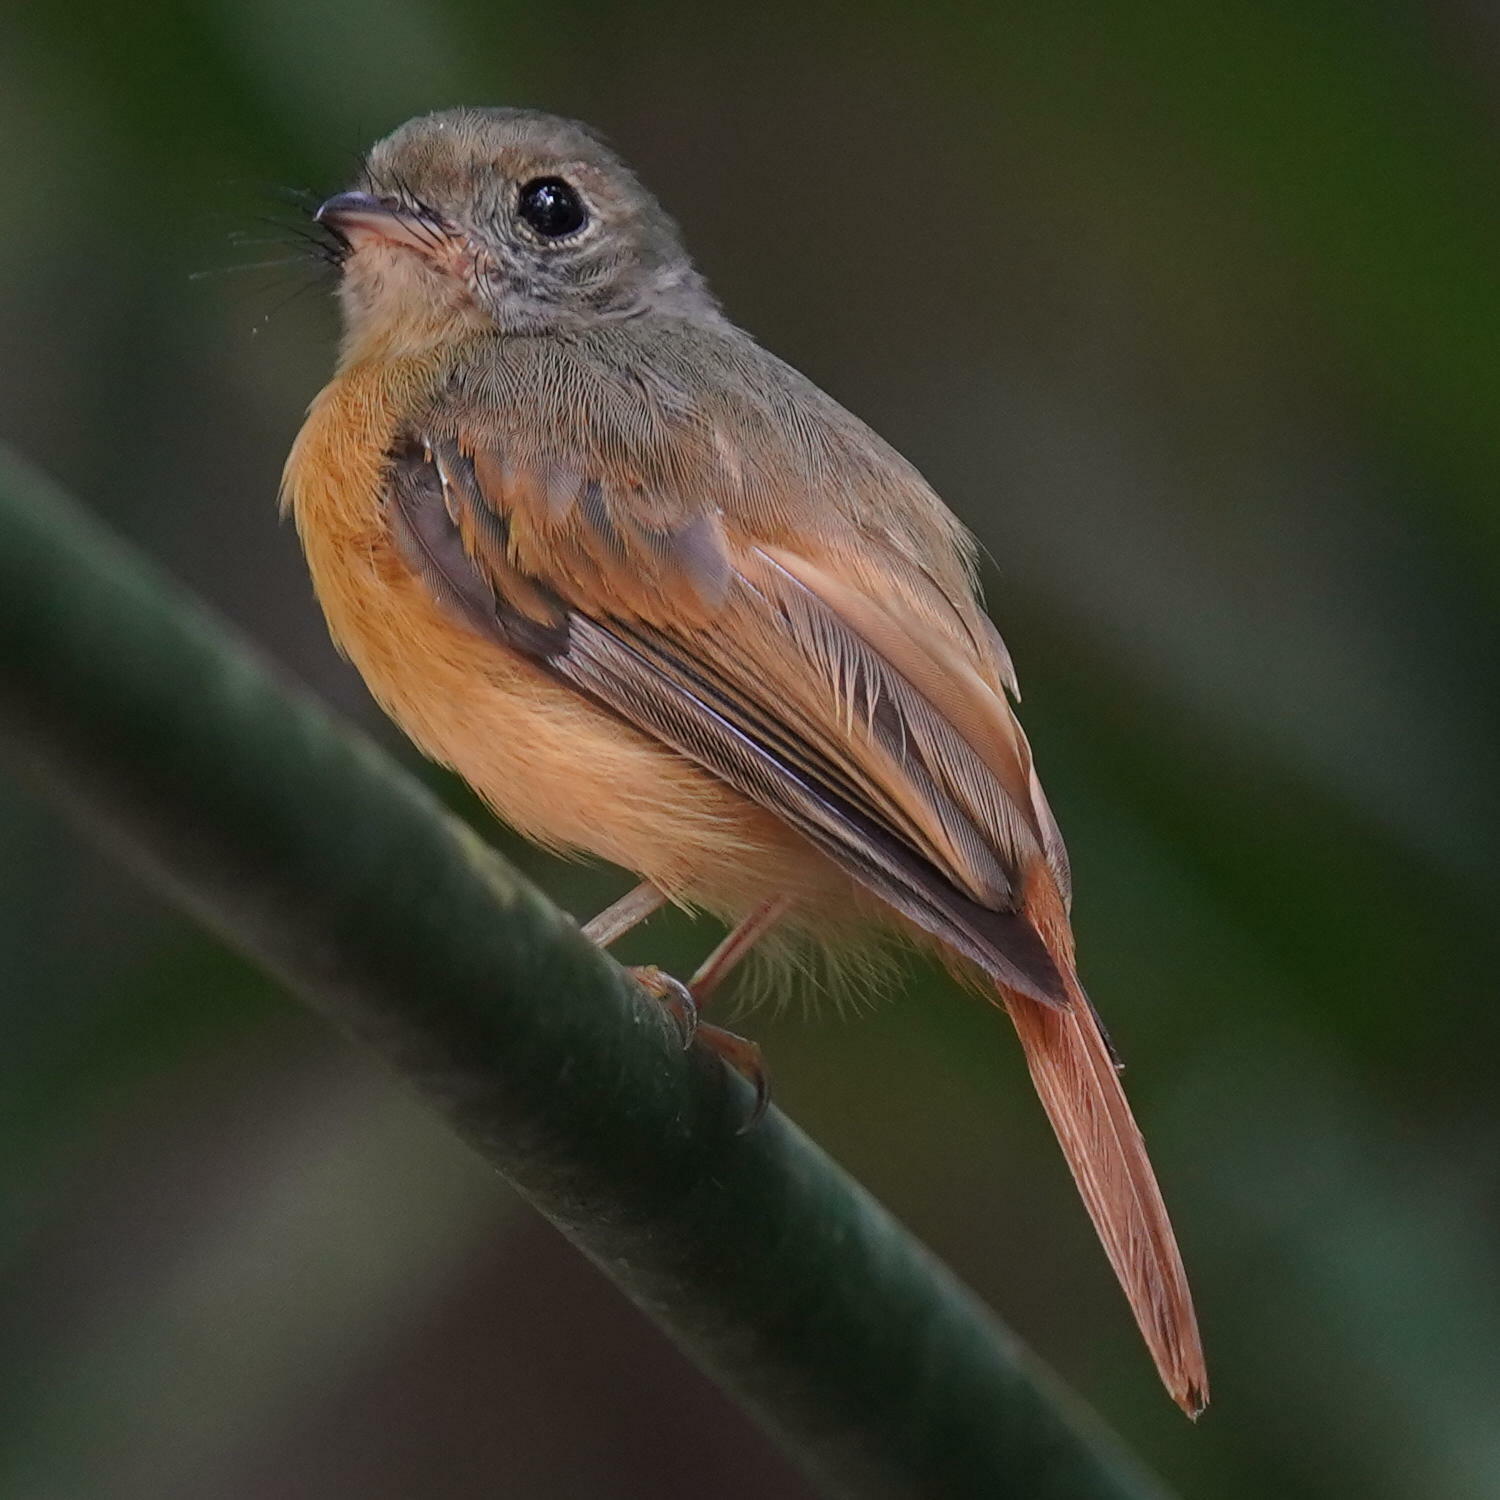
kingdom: Animalia
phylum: Chordata
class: Aves
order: Passeriformes
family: Tyrannidae
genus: Terenotriccus
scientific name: Terenotriccus erythrurus
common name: Ruddy-tailed flycatcher
